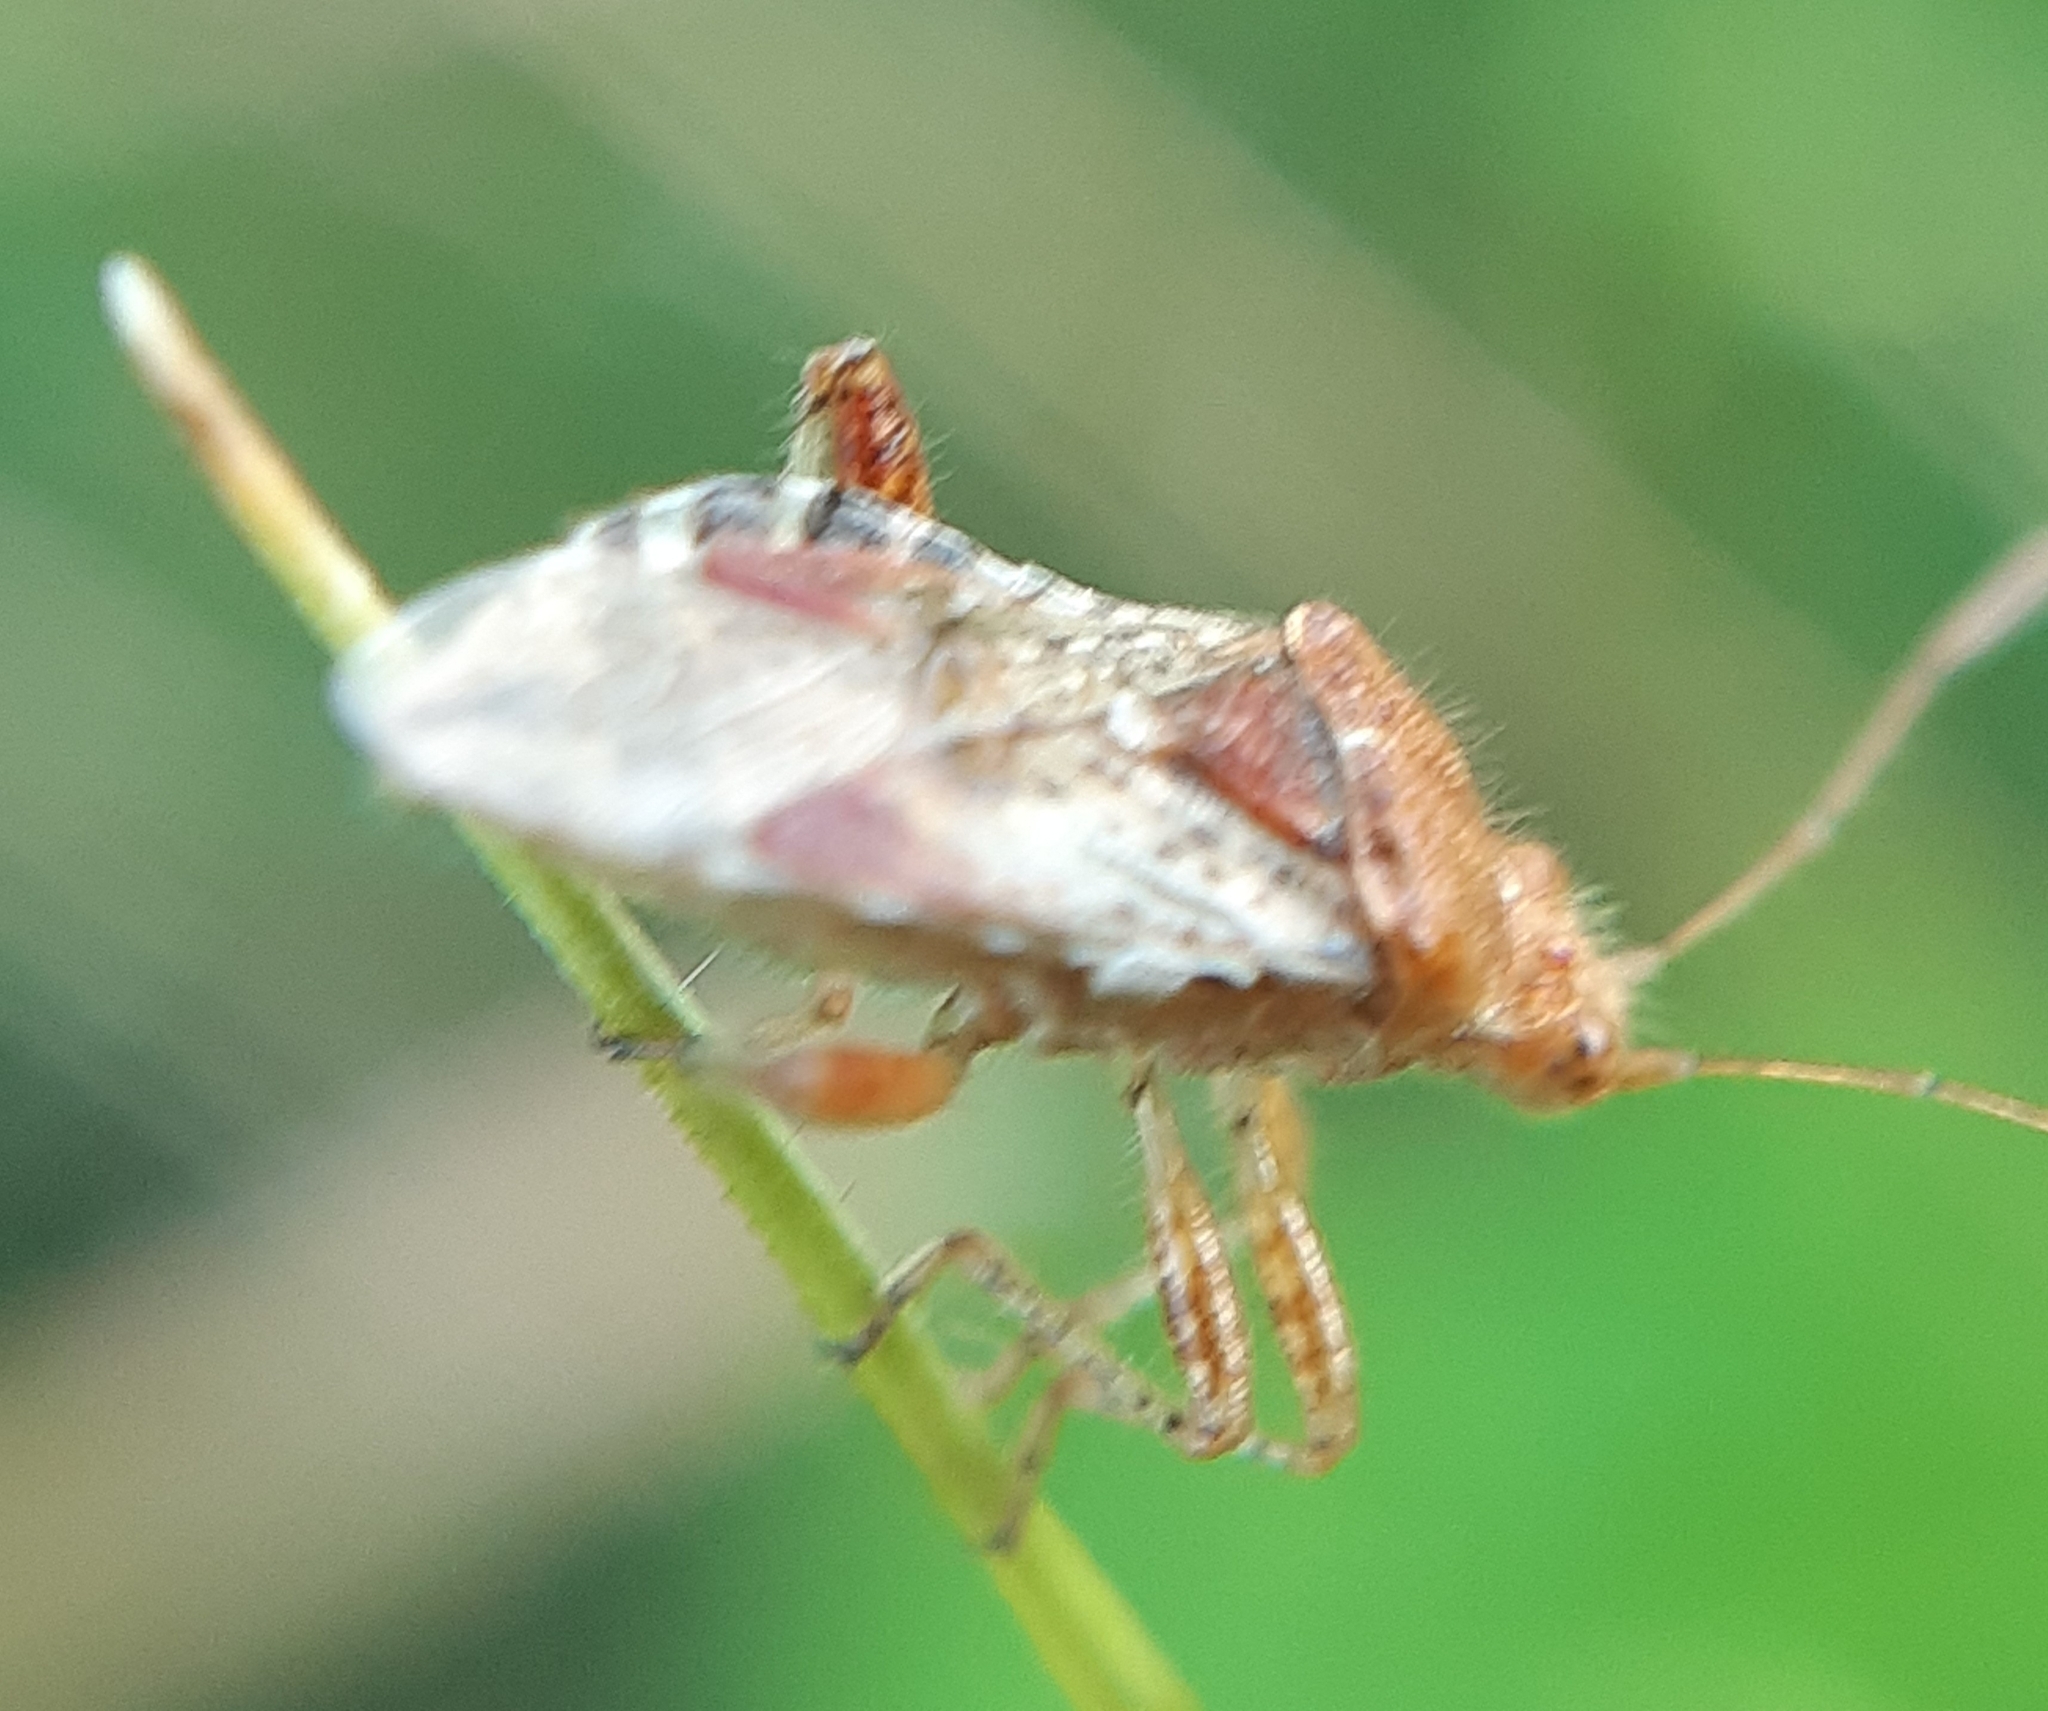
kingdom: Animalia
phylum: Arthropoda
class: Insecta
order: Hemiptera
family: Rhopalidae
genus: Rhopalus
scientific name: Rhopalus subrufus
